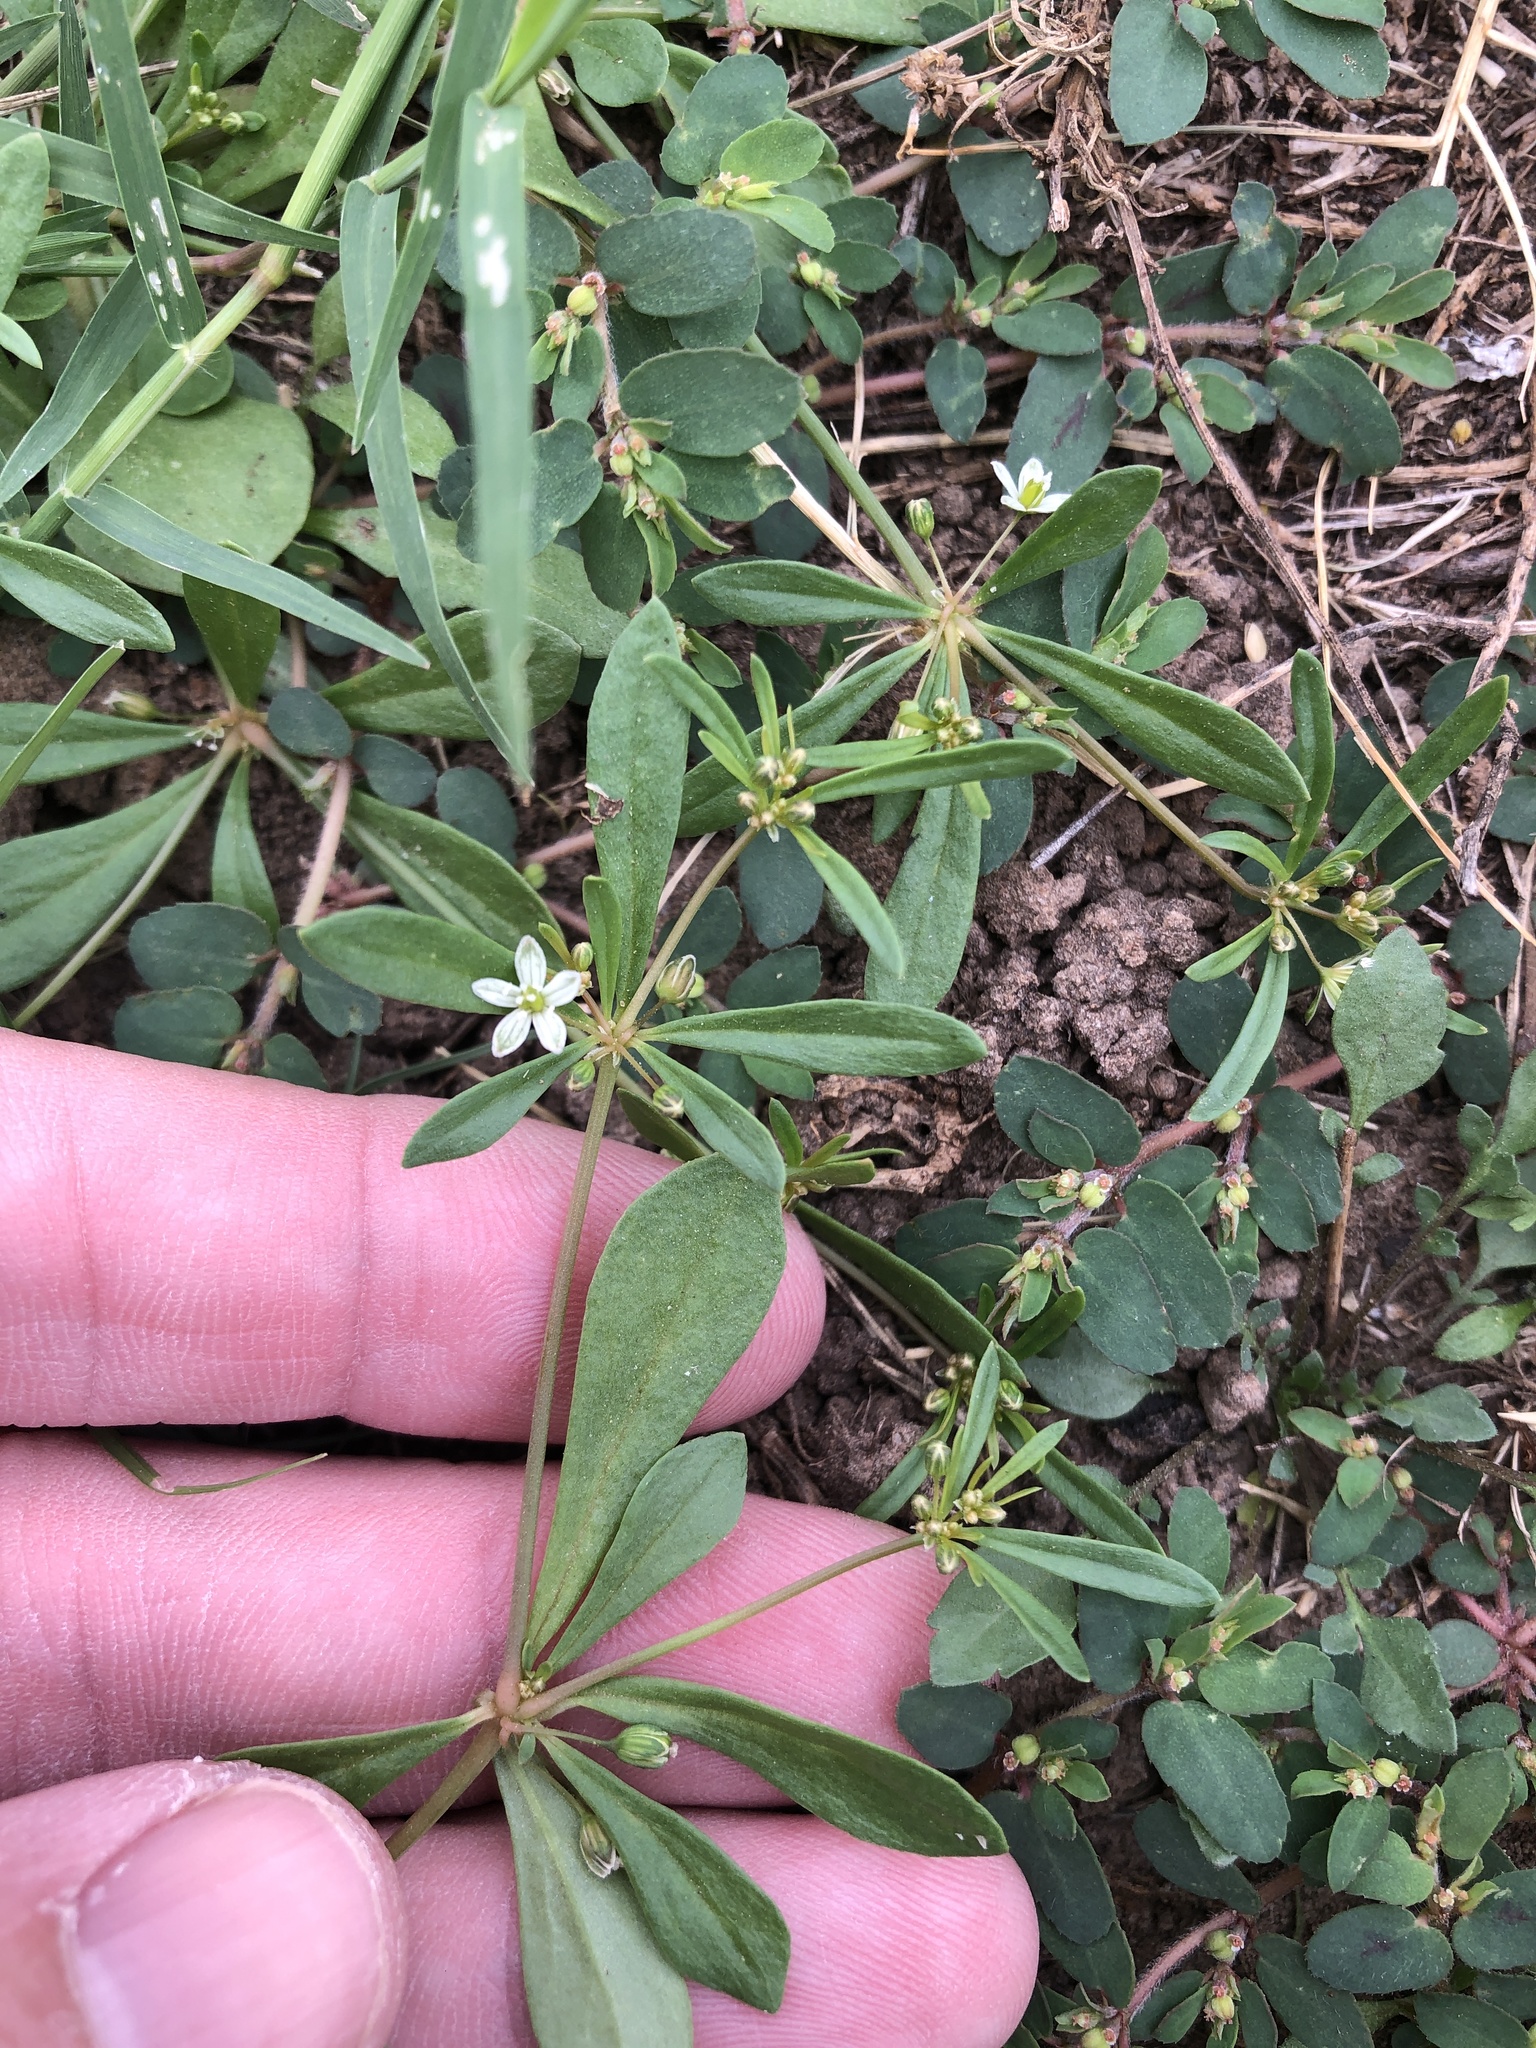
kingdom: Plantae
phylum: Tracheophyta
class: Magnoliopsida
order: Caryophyllales
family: Molluginaceae
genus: Mollugo
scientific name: Mollugo verticillata
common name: Green carpetweed
